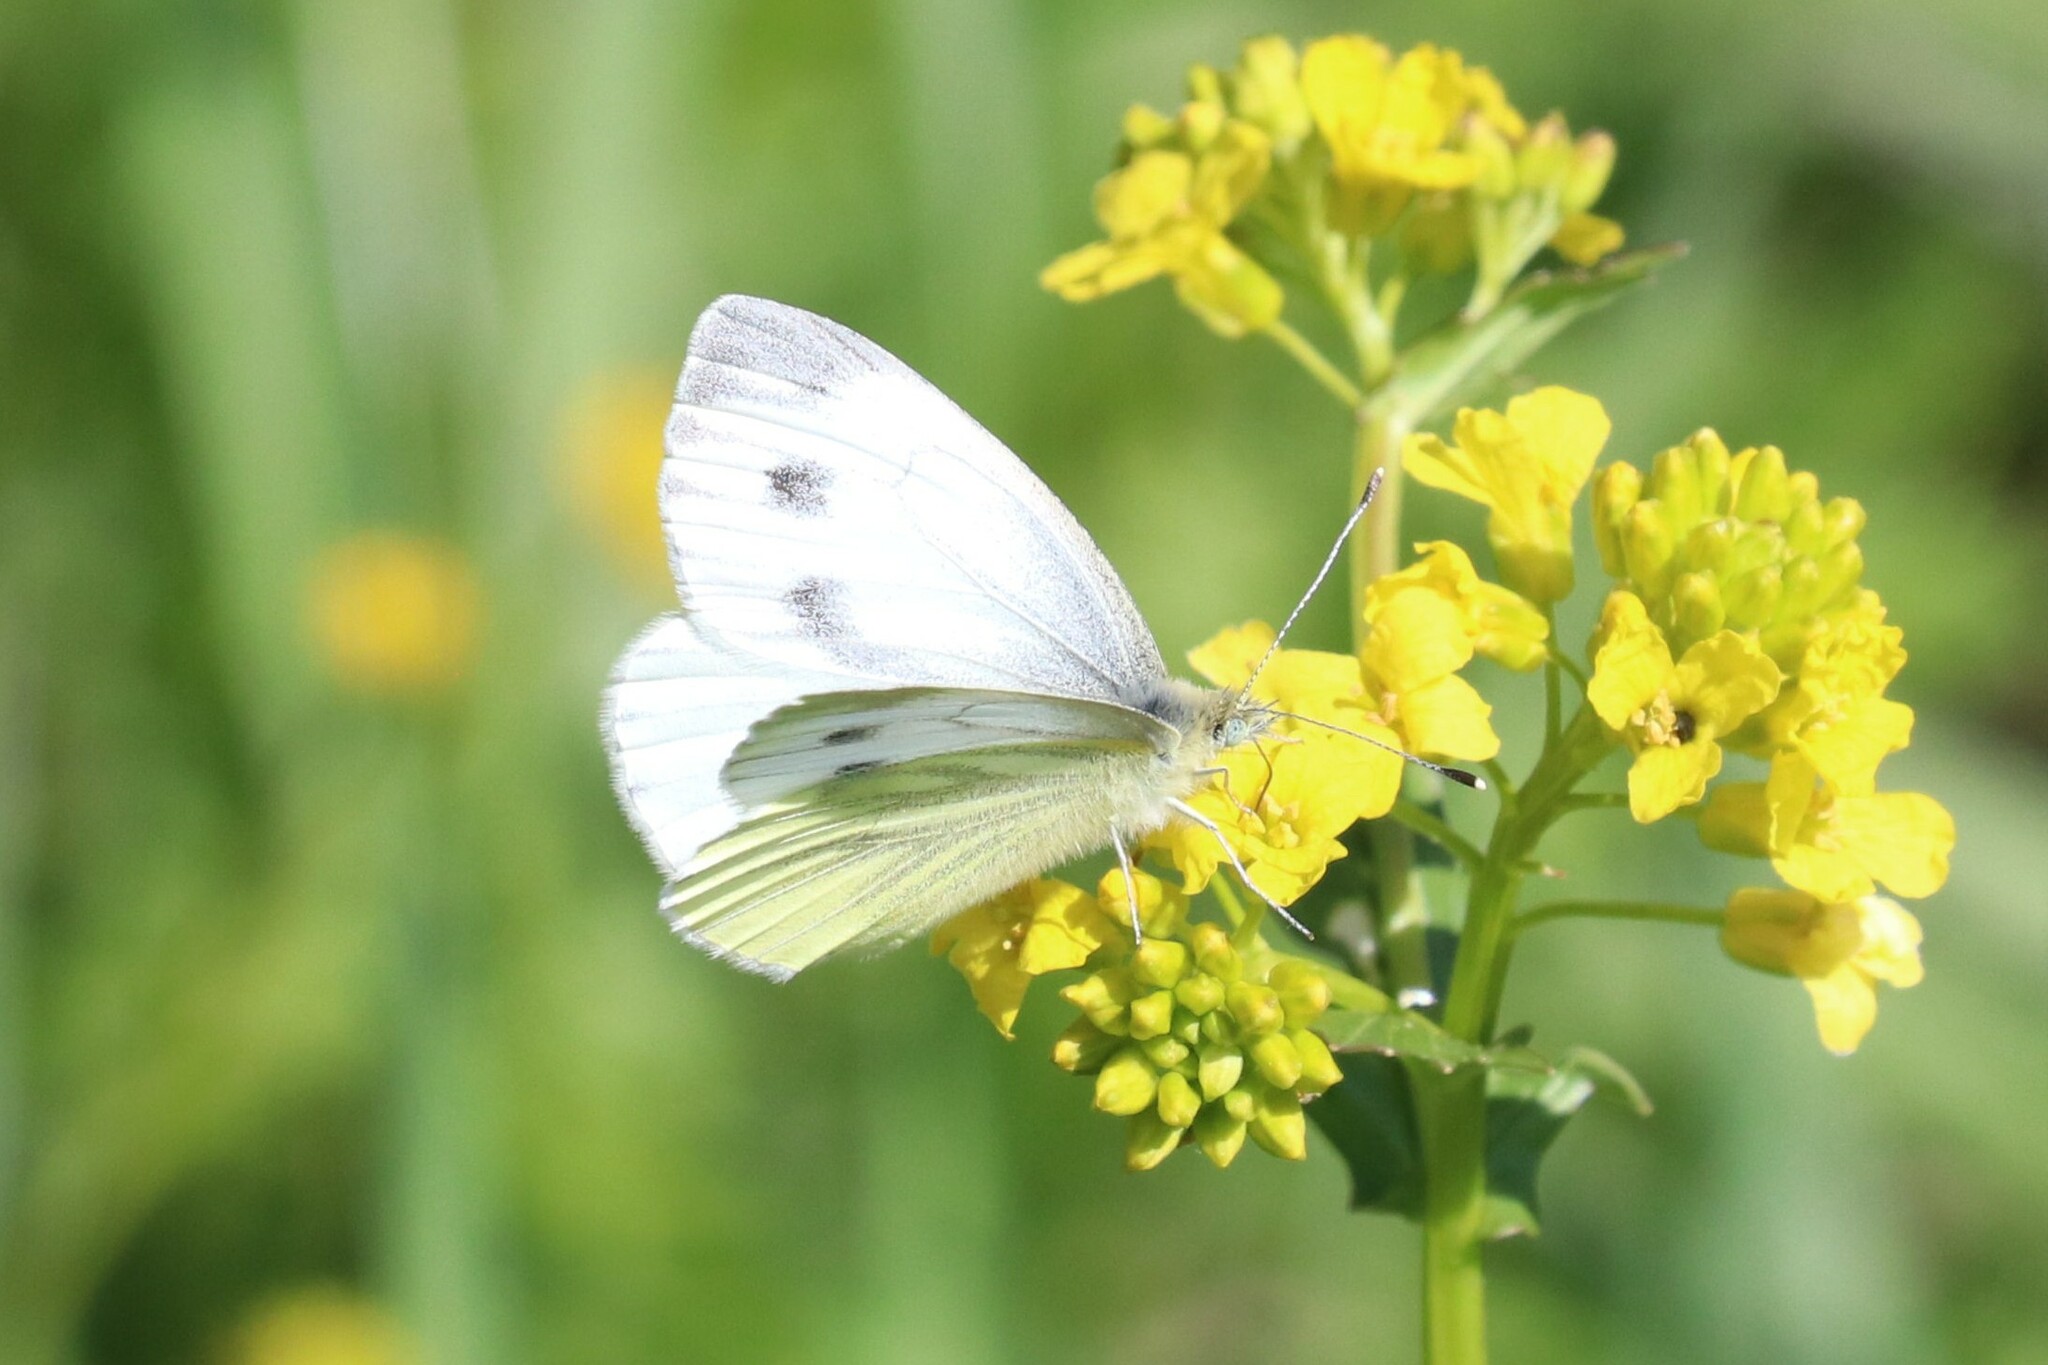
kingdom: Animalia
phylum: Arthropoda
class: Insecta
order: Lepidoptera
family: Pieridae
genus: Pieris
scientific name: Pieris napi
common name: Green-veined white
